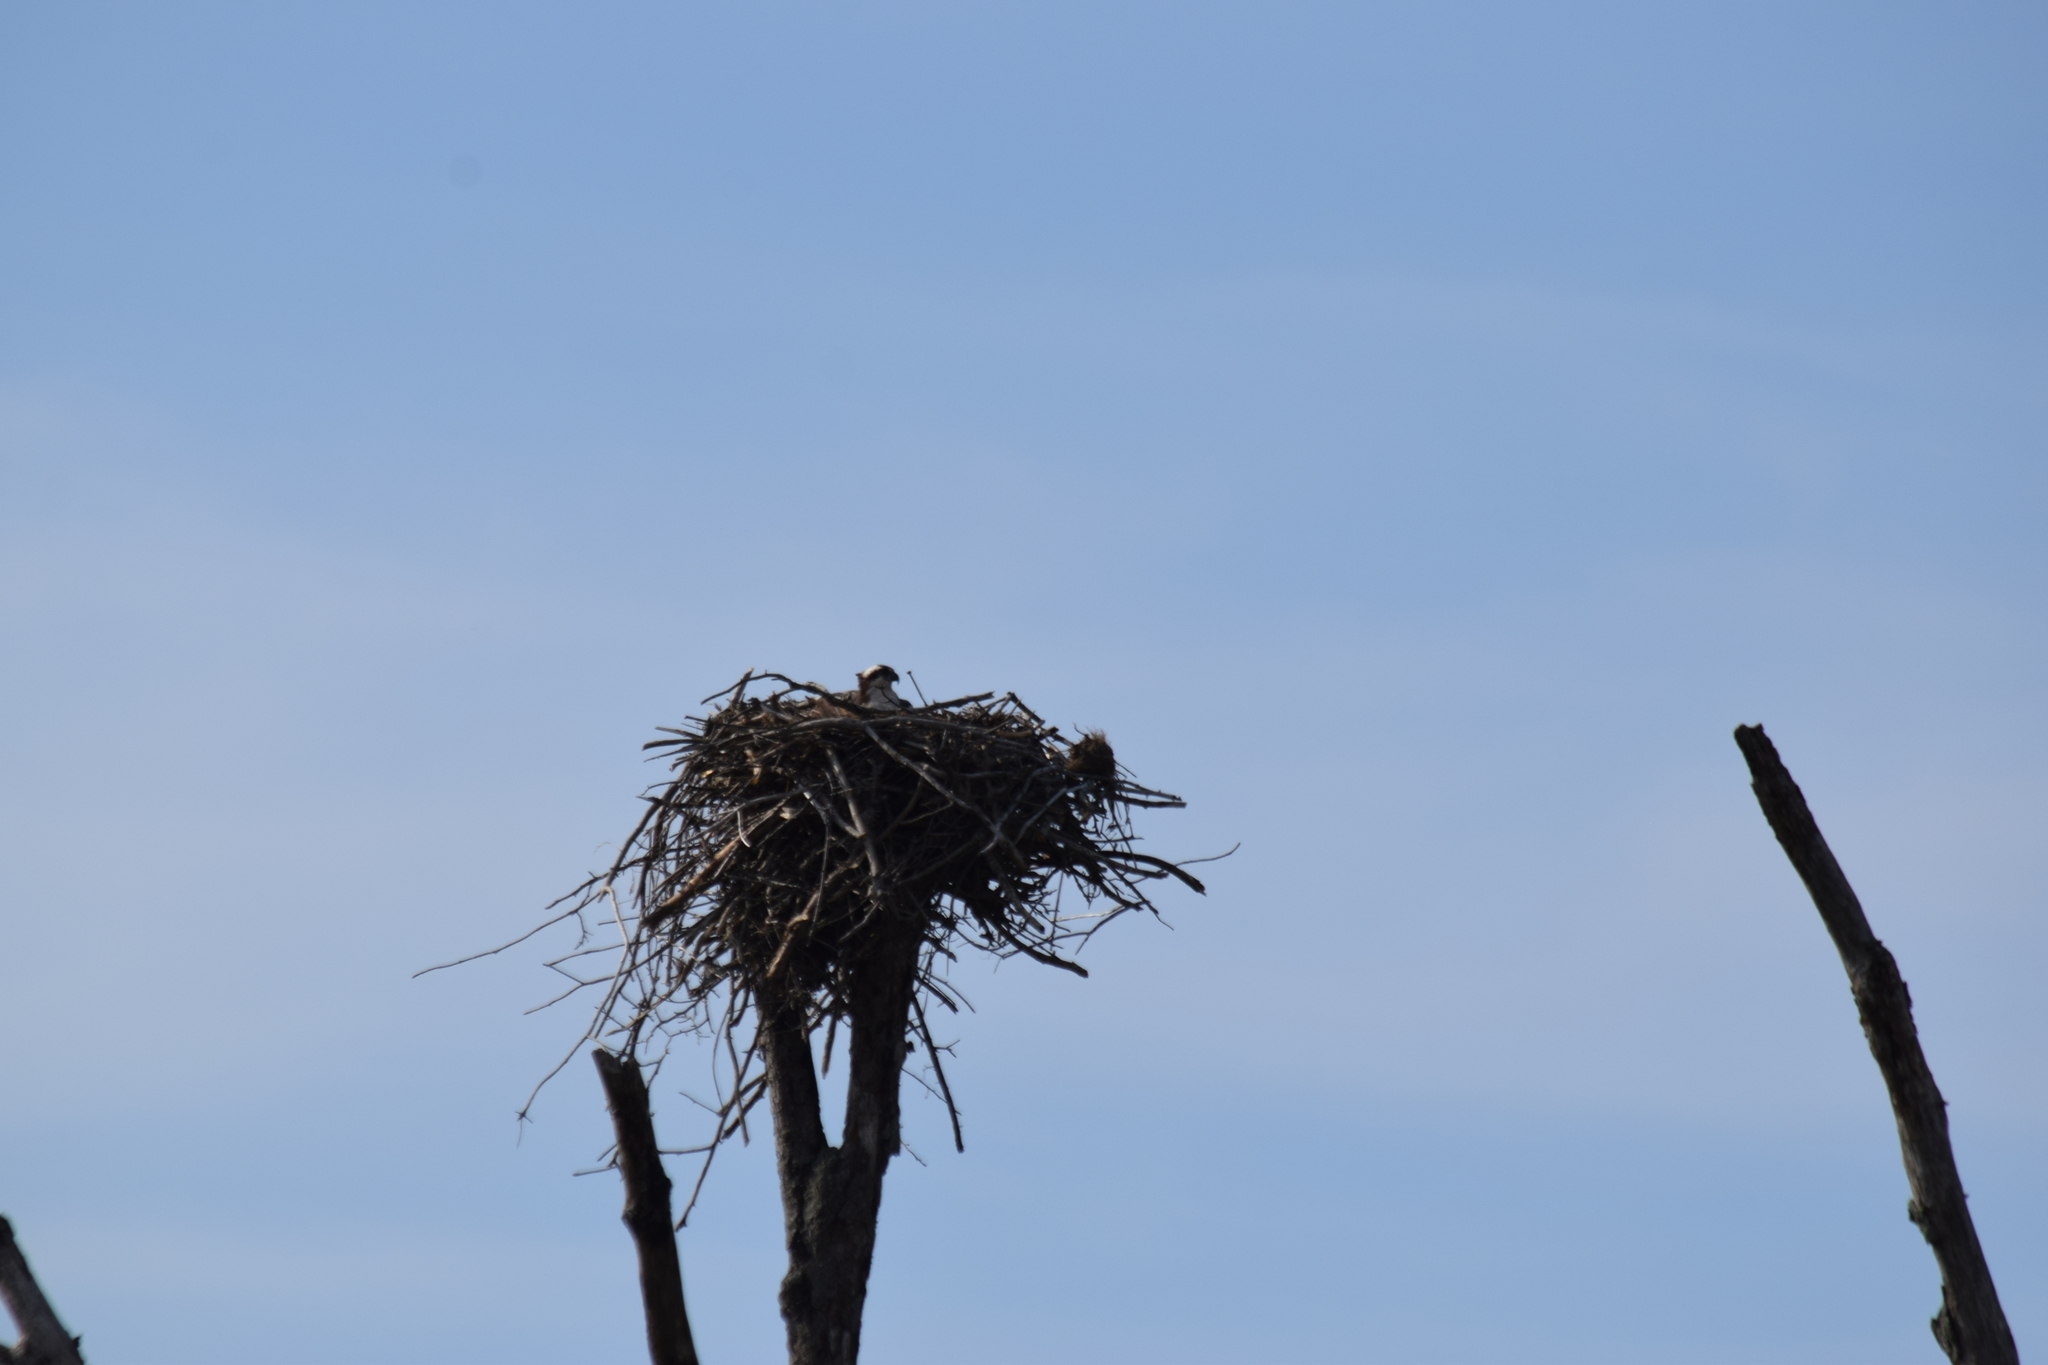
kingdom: Animalia
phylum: Chordata
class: Aves
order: Accipitriformes
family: Pandionidae
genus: Pandion
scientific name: Pandion haliaetus
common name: Osprey
